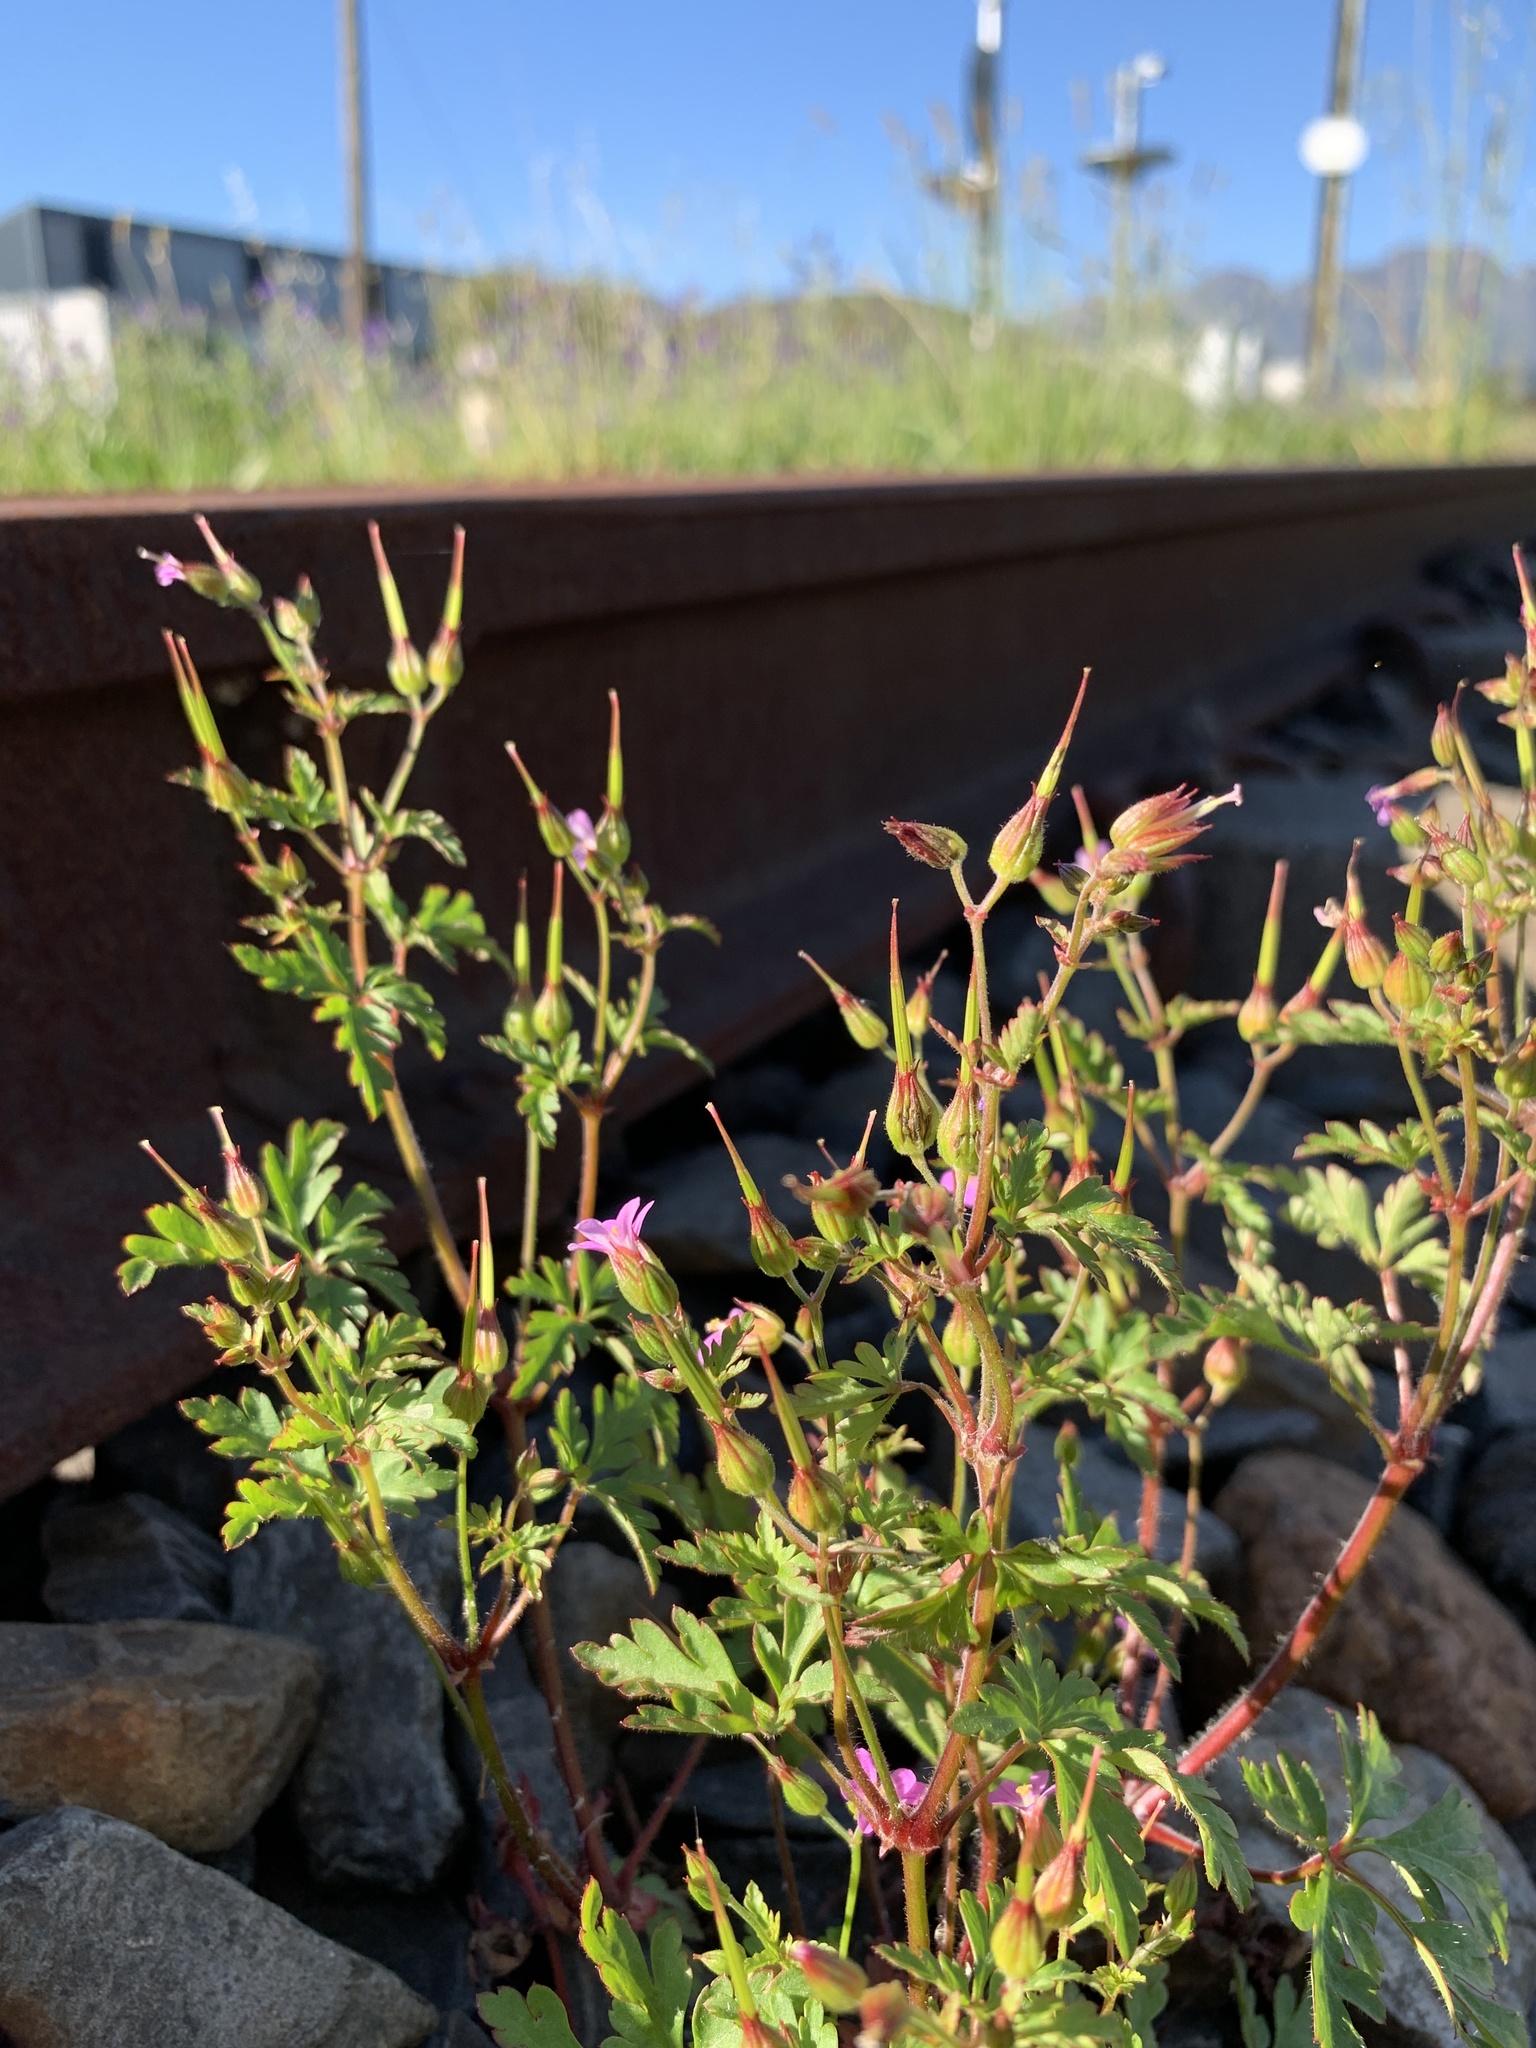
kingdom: Plantae
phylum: Tracheophyta
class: Magnoliopsida
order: Geraniales
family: Geraniaceae
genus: Geranium
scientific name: Geranium purpureum
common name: Little-robin
